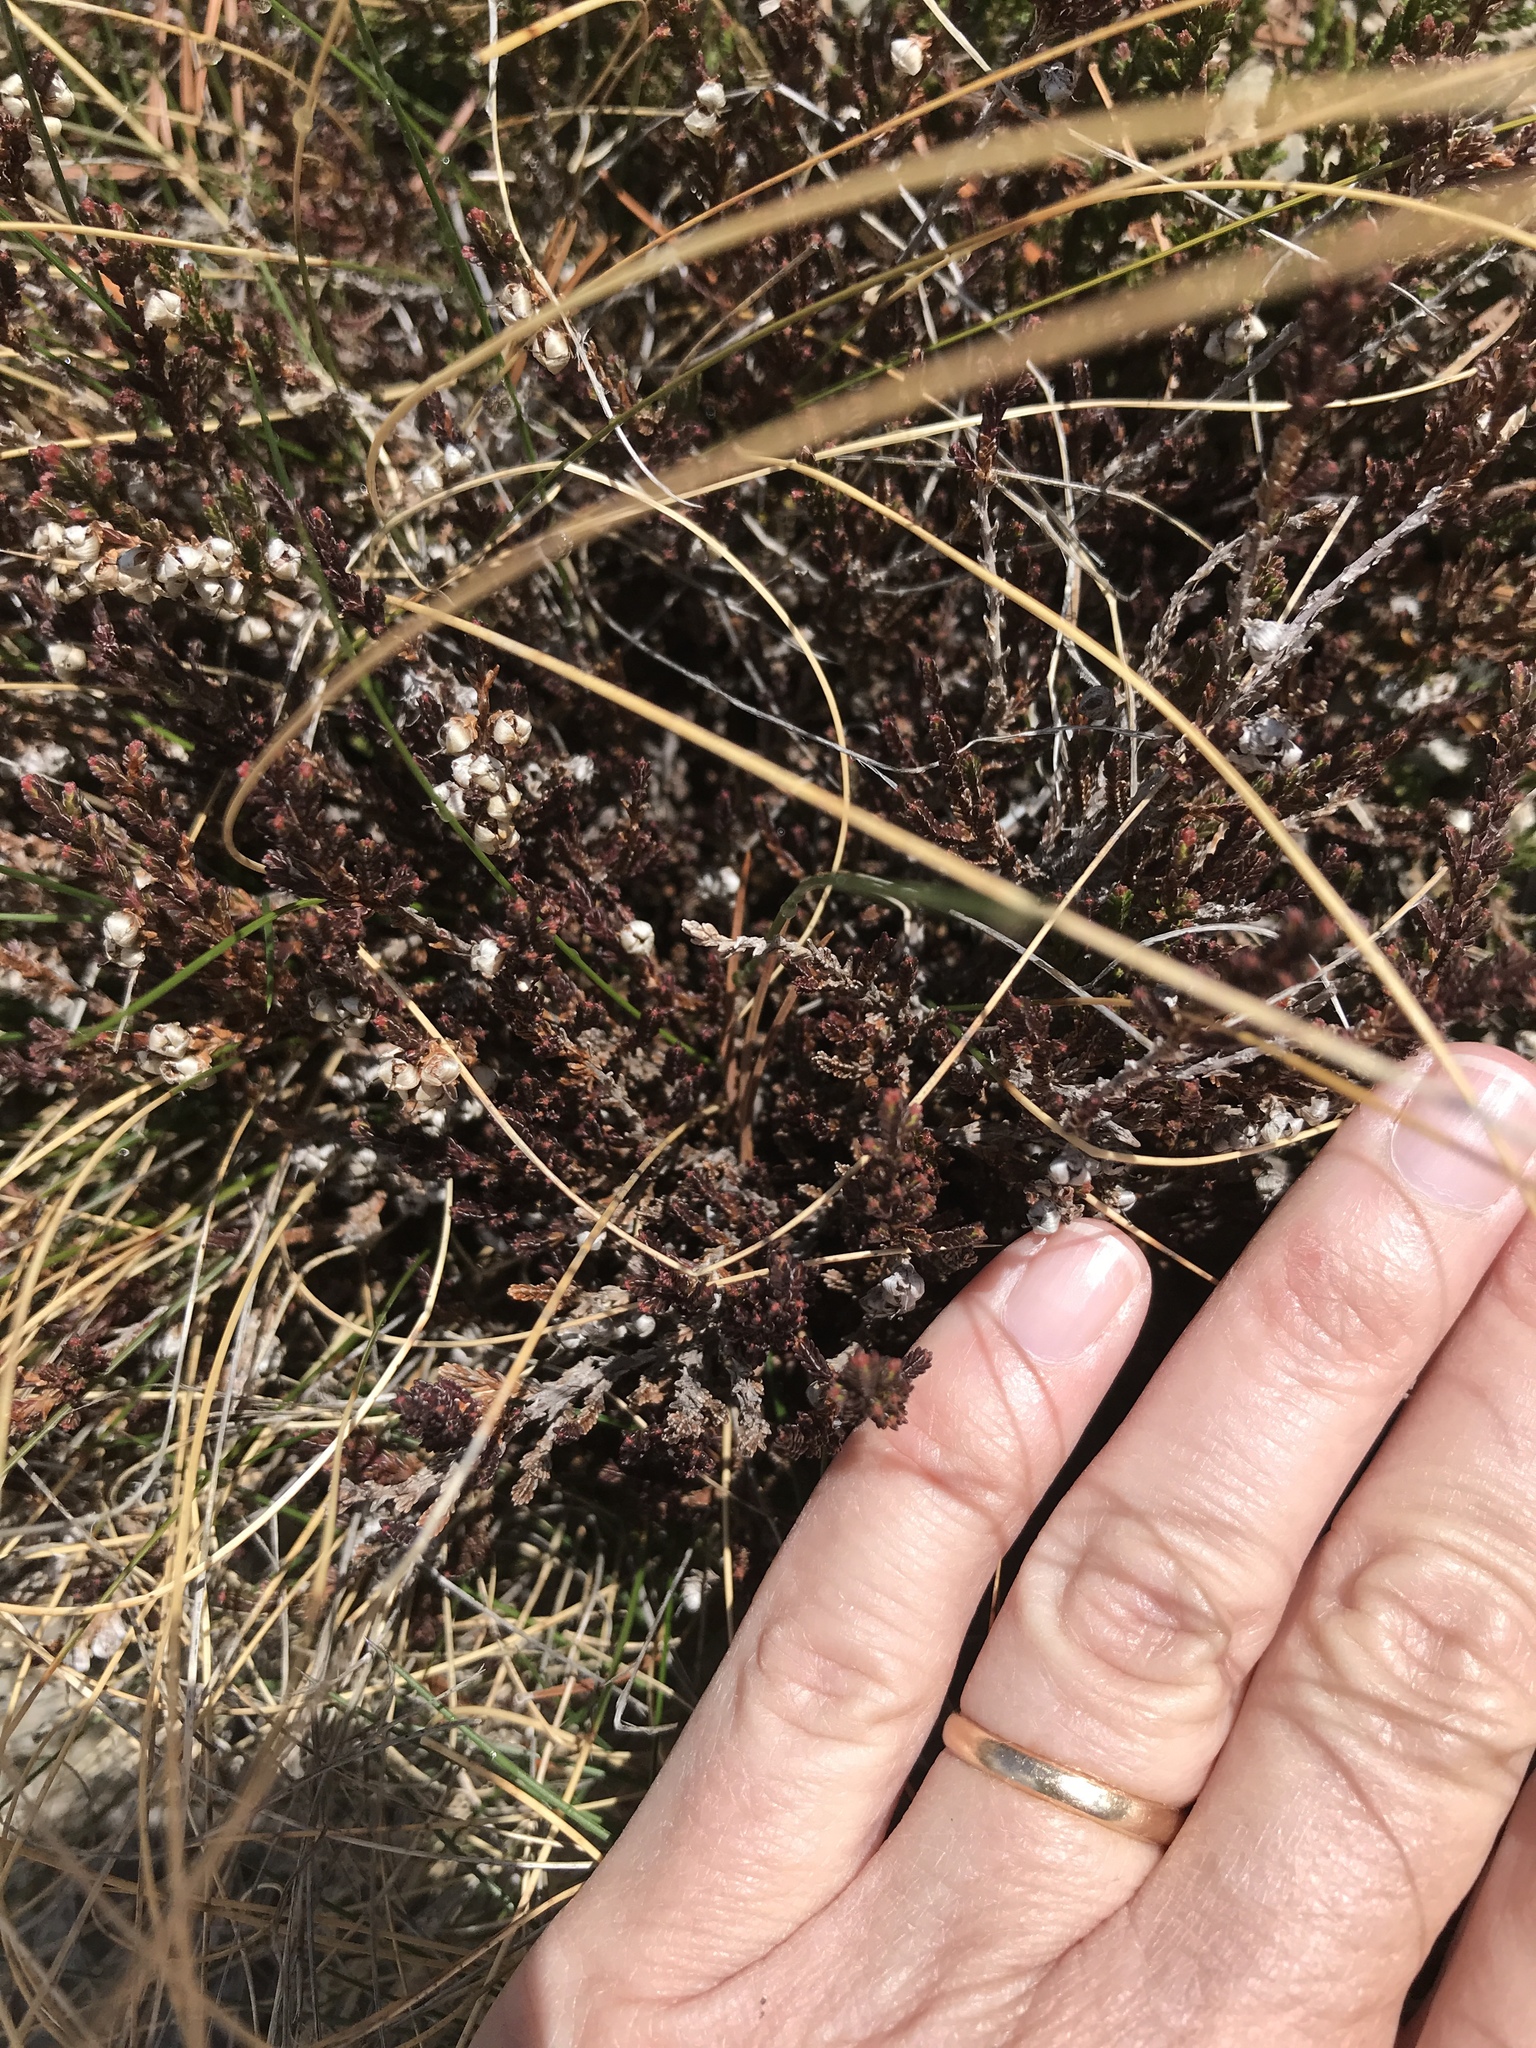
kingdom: Plantae
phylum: Tracheophyta
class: Magnoliopsida
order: Ericales
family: Ericaceae
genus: Calluna
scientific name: Calluna vulgaris
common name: Heather
